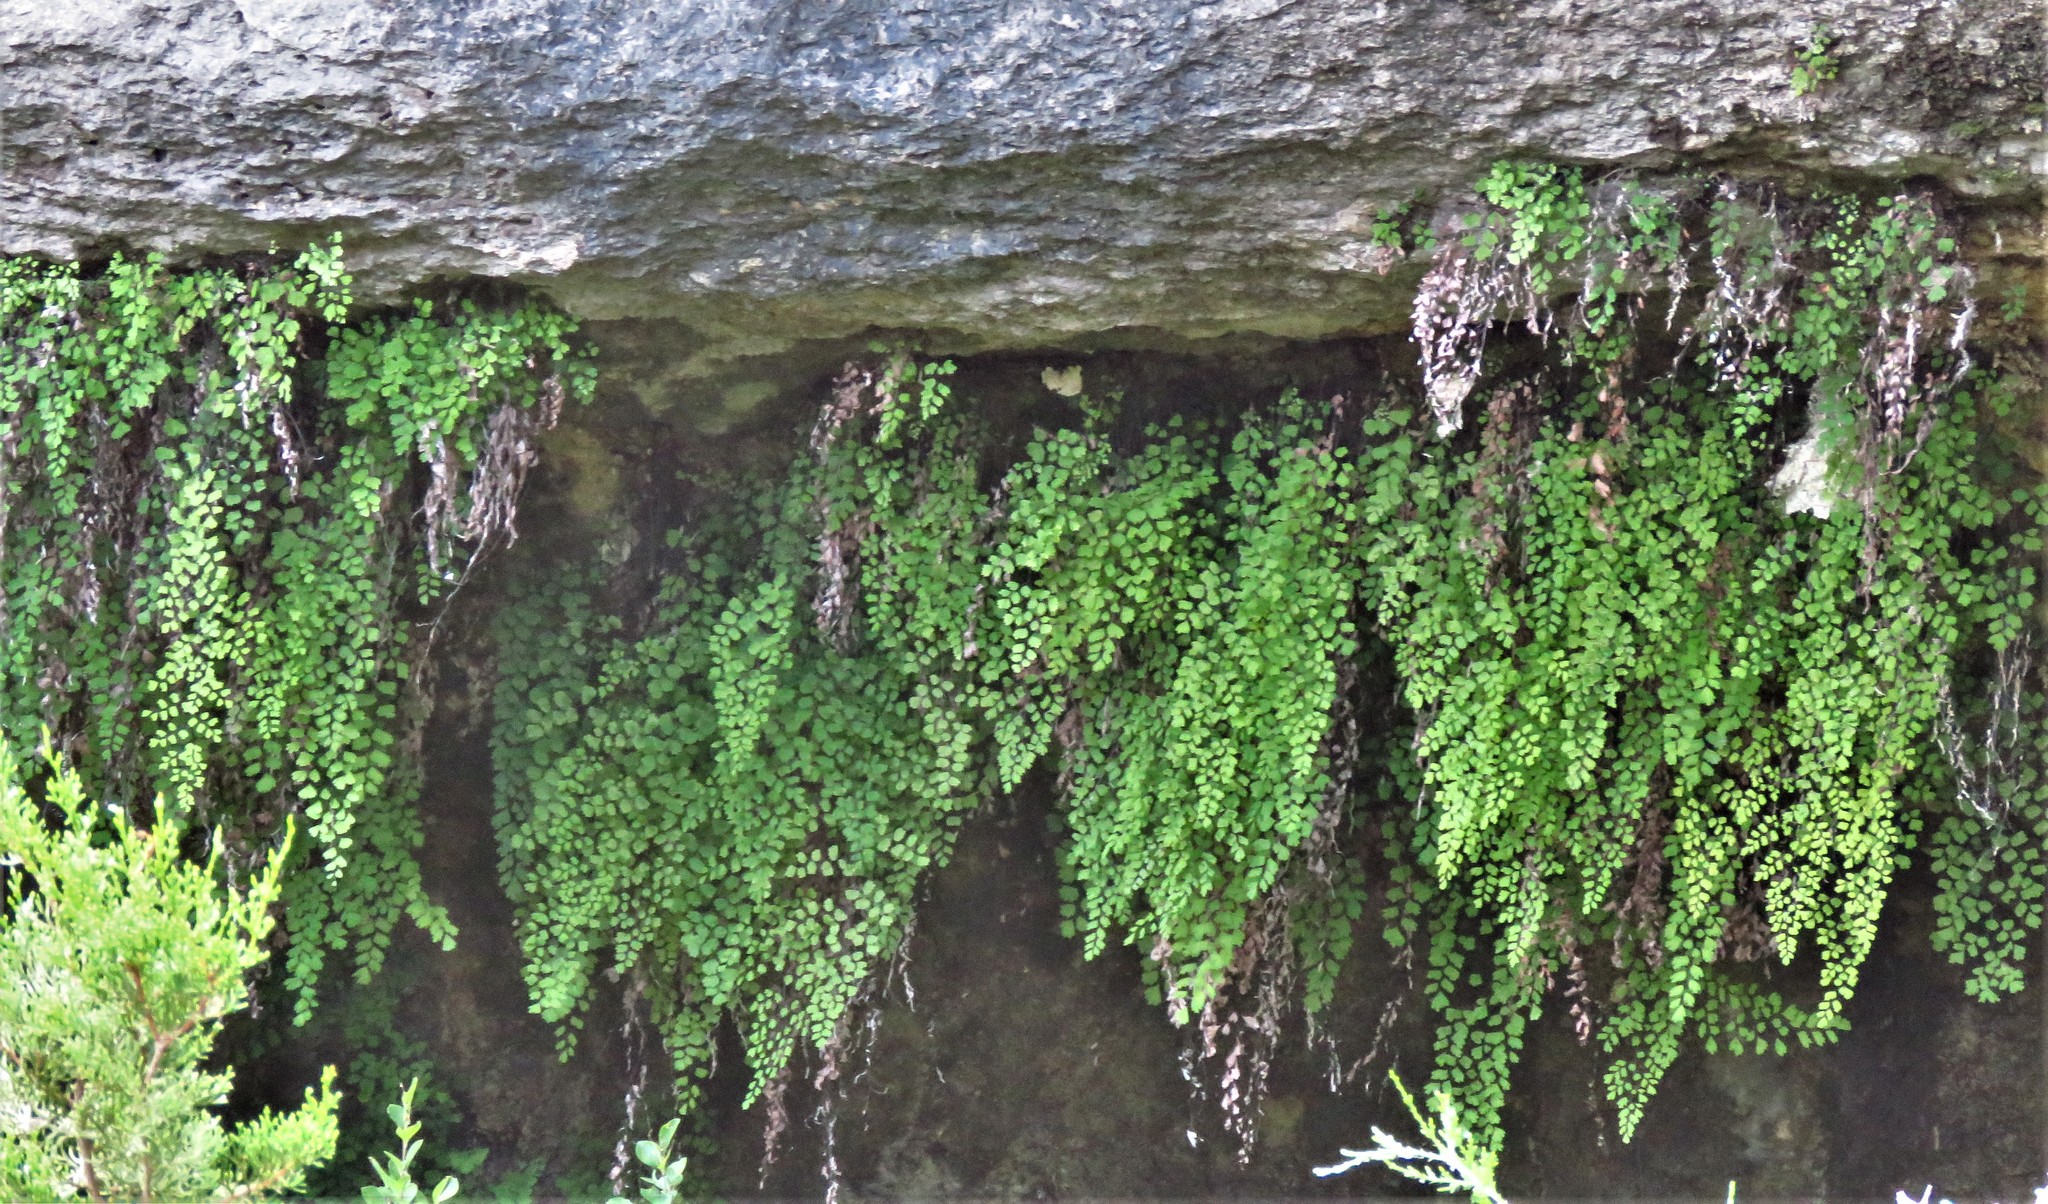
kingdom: Plantae
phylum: Tracheophyta
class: Polypodiopsida
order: Polypodiales
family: Pteridaceae
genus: Adiantum
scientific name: Adiantum capillus-veneris
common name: Maidenhair fern
